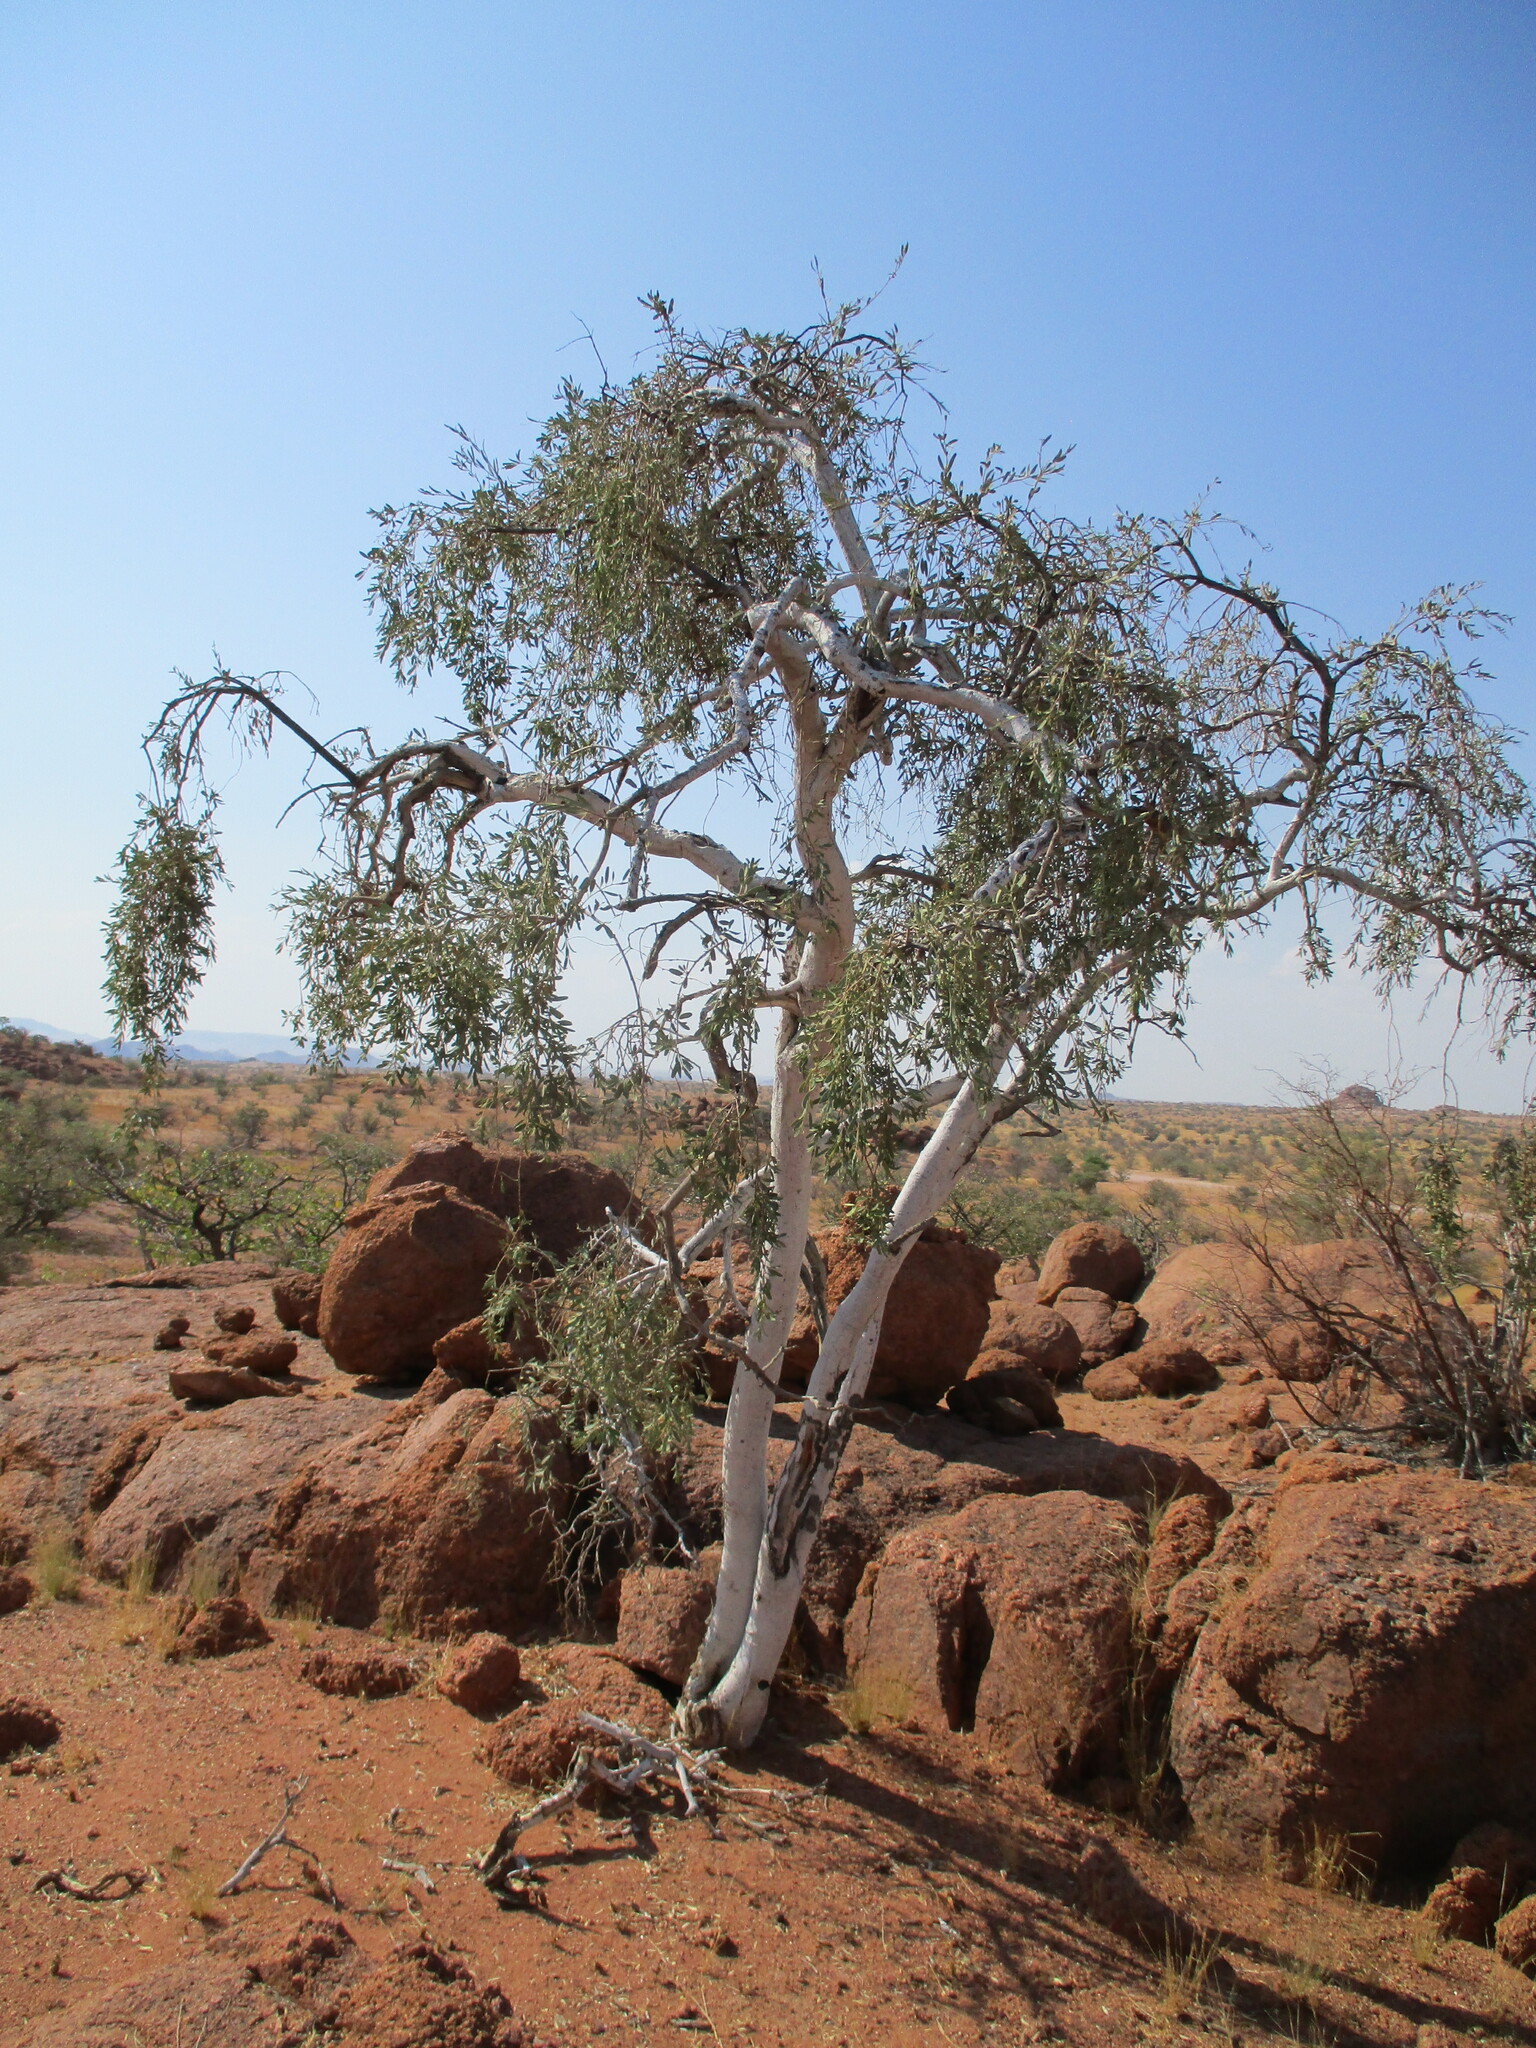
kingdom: Plantae
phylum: Tracheophyta
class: Magnoliopsida
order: Brassicales
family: Capparaceae
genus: Boscia
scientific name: Boscia albitrunca
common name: Caper bush
